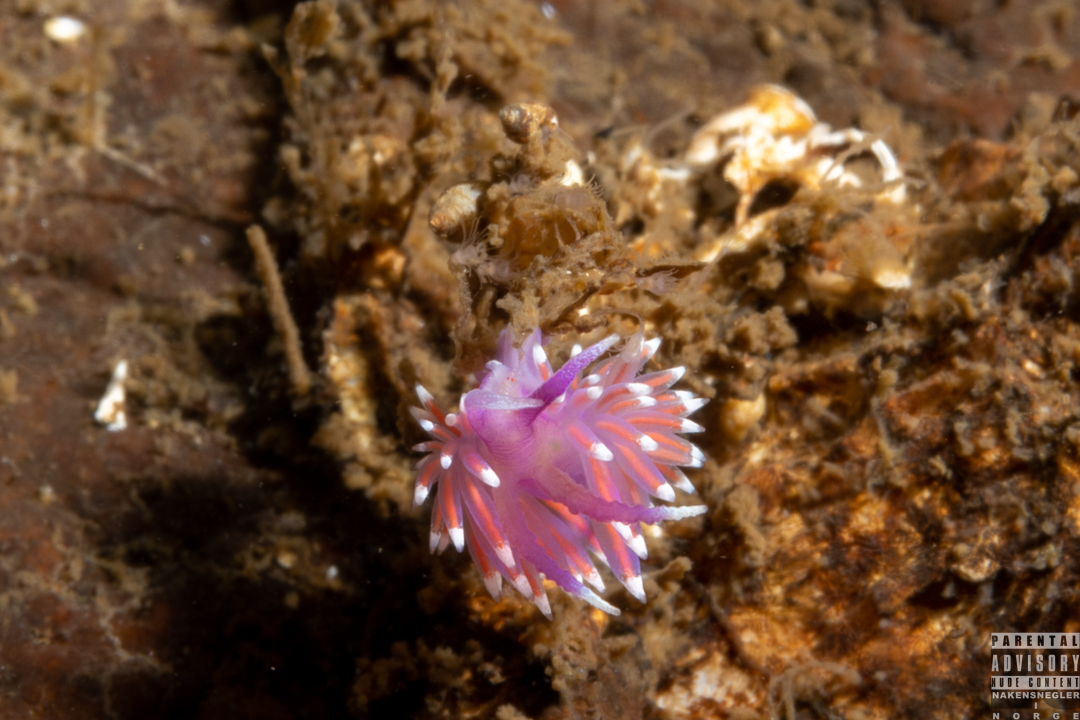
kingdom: Animalia
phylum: Mollusca
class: Gastropoda
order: Nudibranchia
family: Flabellinidae
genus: Edmundsella
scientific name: Edmundsella pedata
